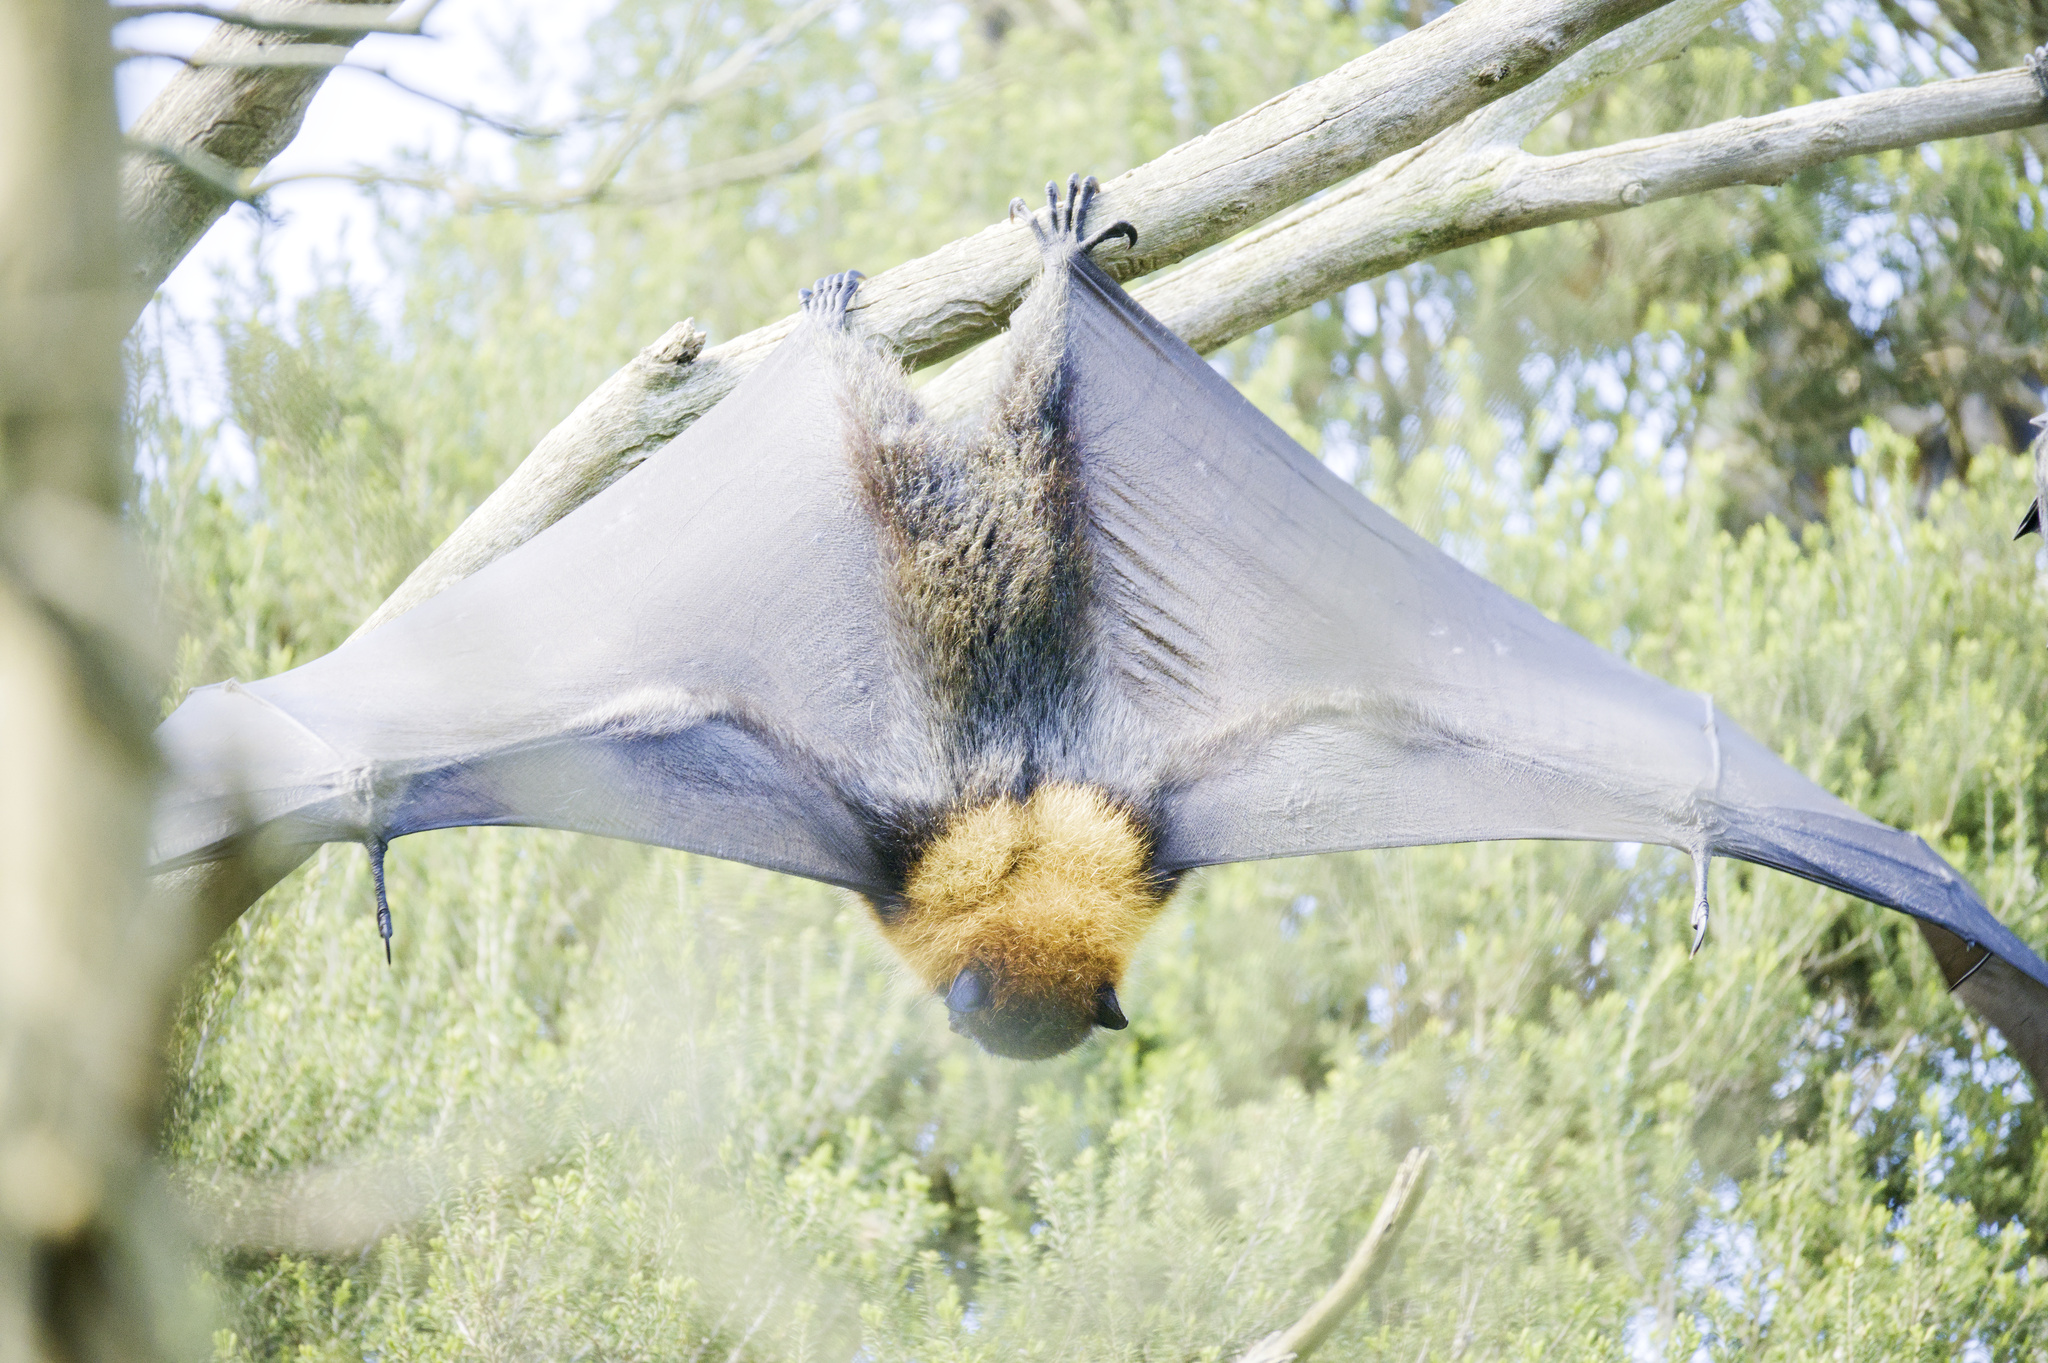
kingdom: Animalia
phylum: Chordata
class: Mammalia
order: Chiroptera
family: Pteropodidae
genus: Pteropus
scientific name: Pteropus poliocephalus
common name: Gray-headed flying fox
